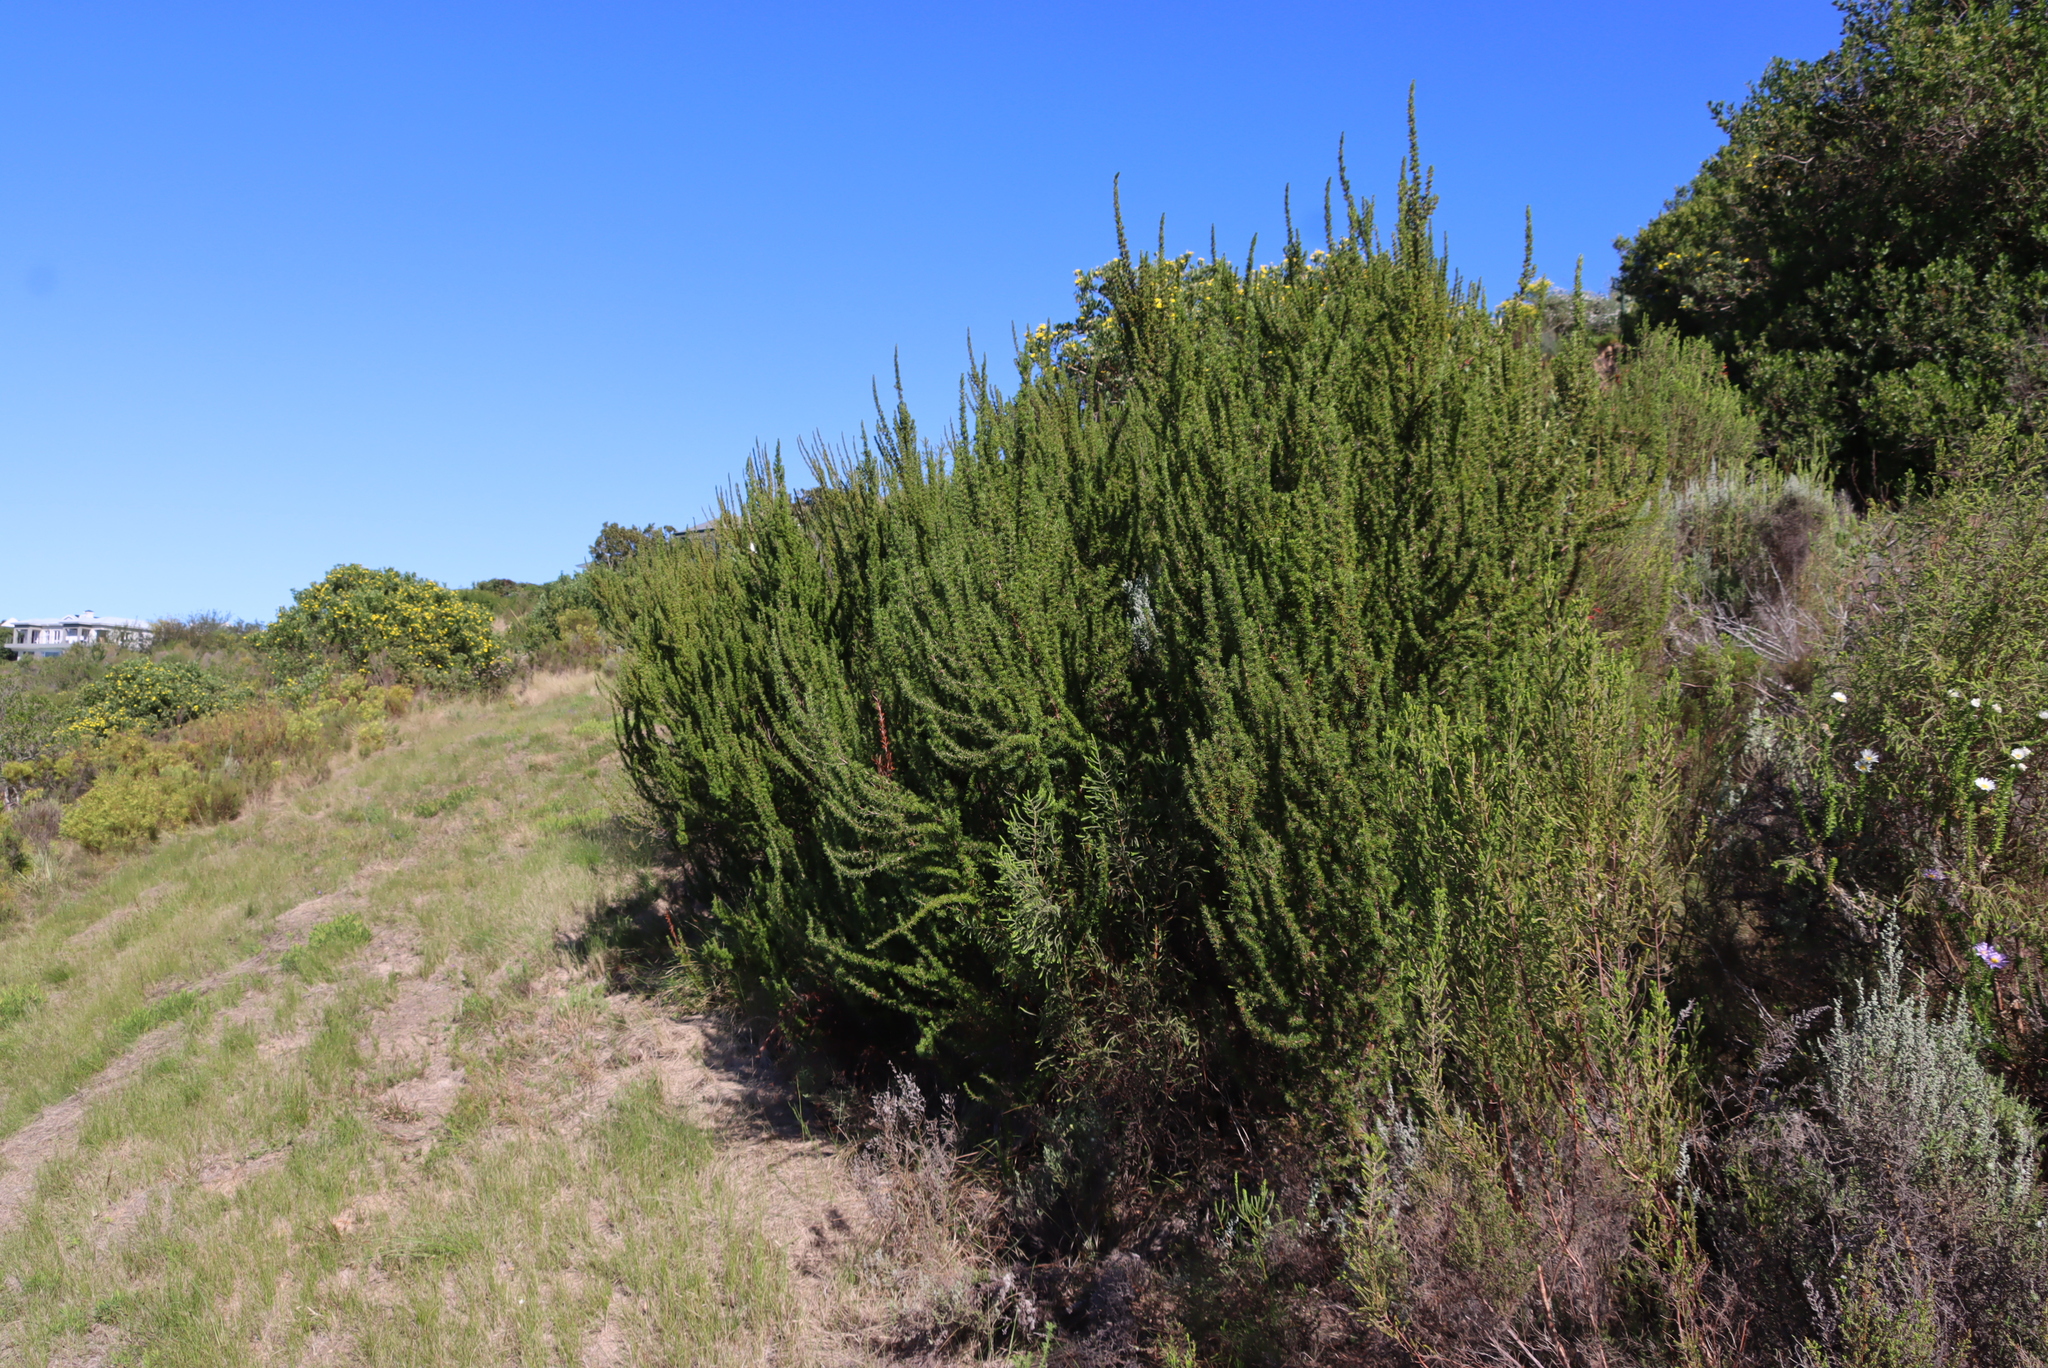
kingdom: Plantae
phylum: Tracheophyta
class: Magnoliopsida
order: Rosales
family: Rosaceae
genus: Cliffortia
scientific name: Cliffortia stricta
